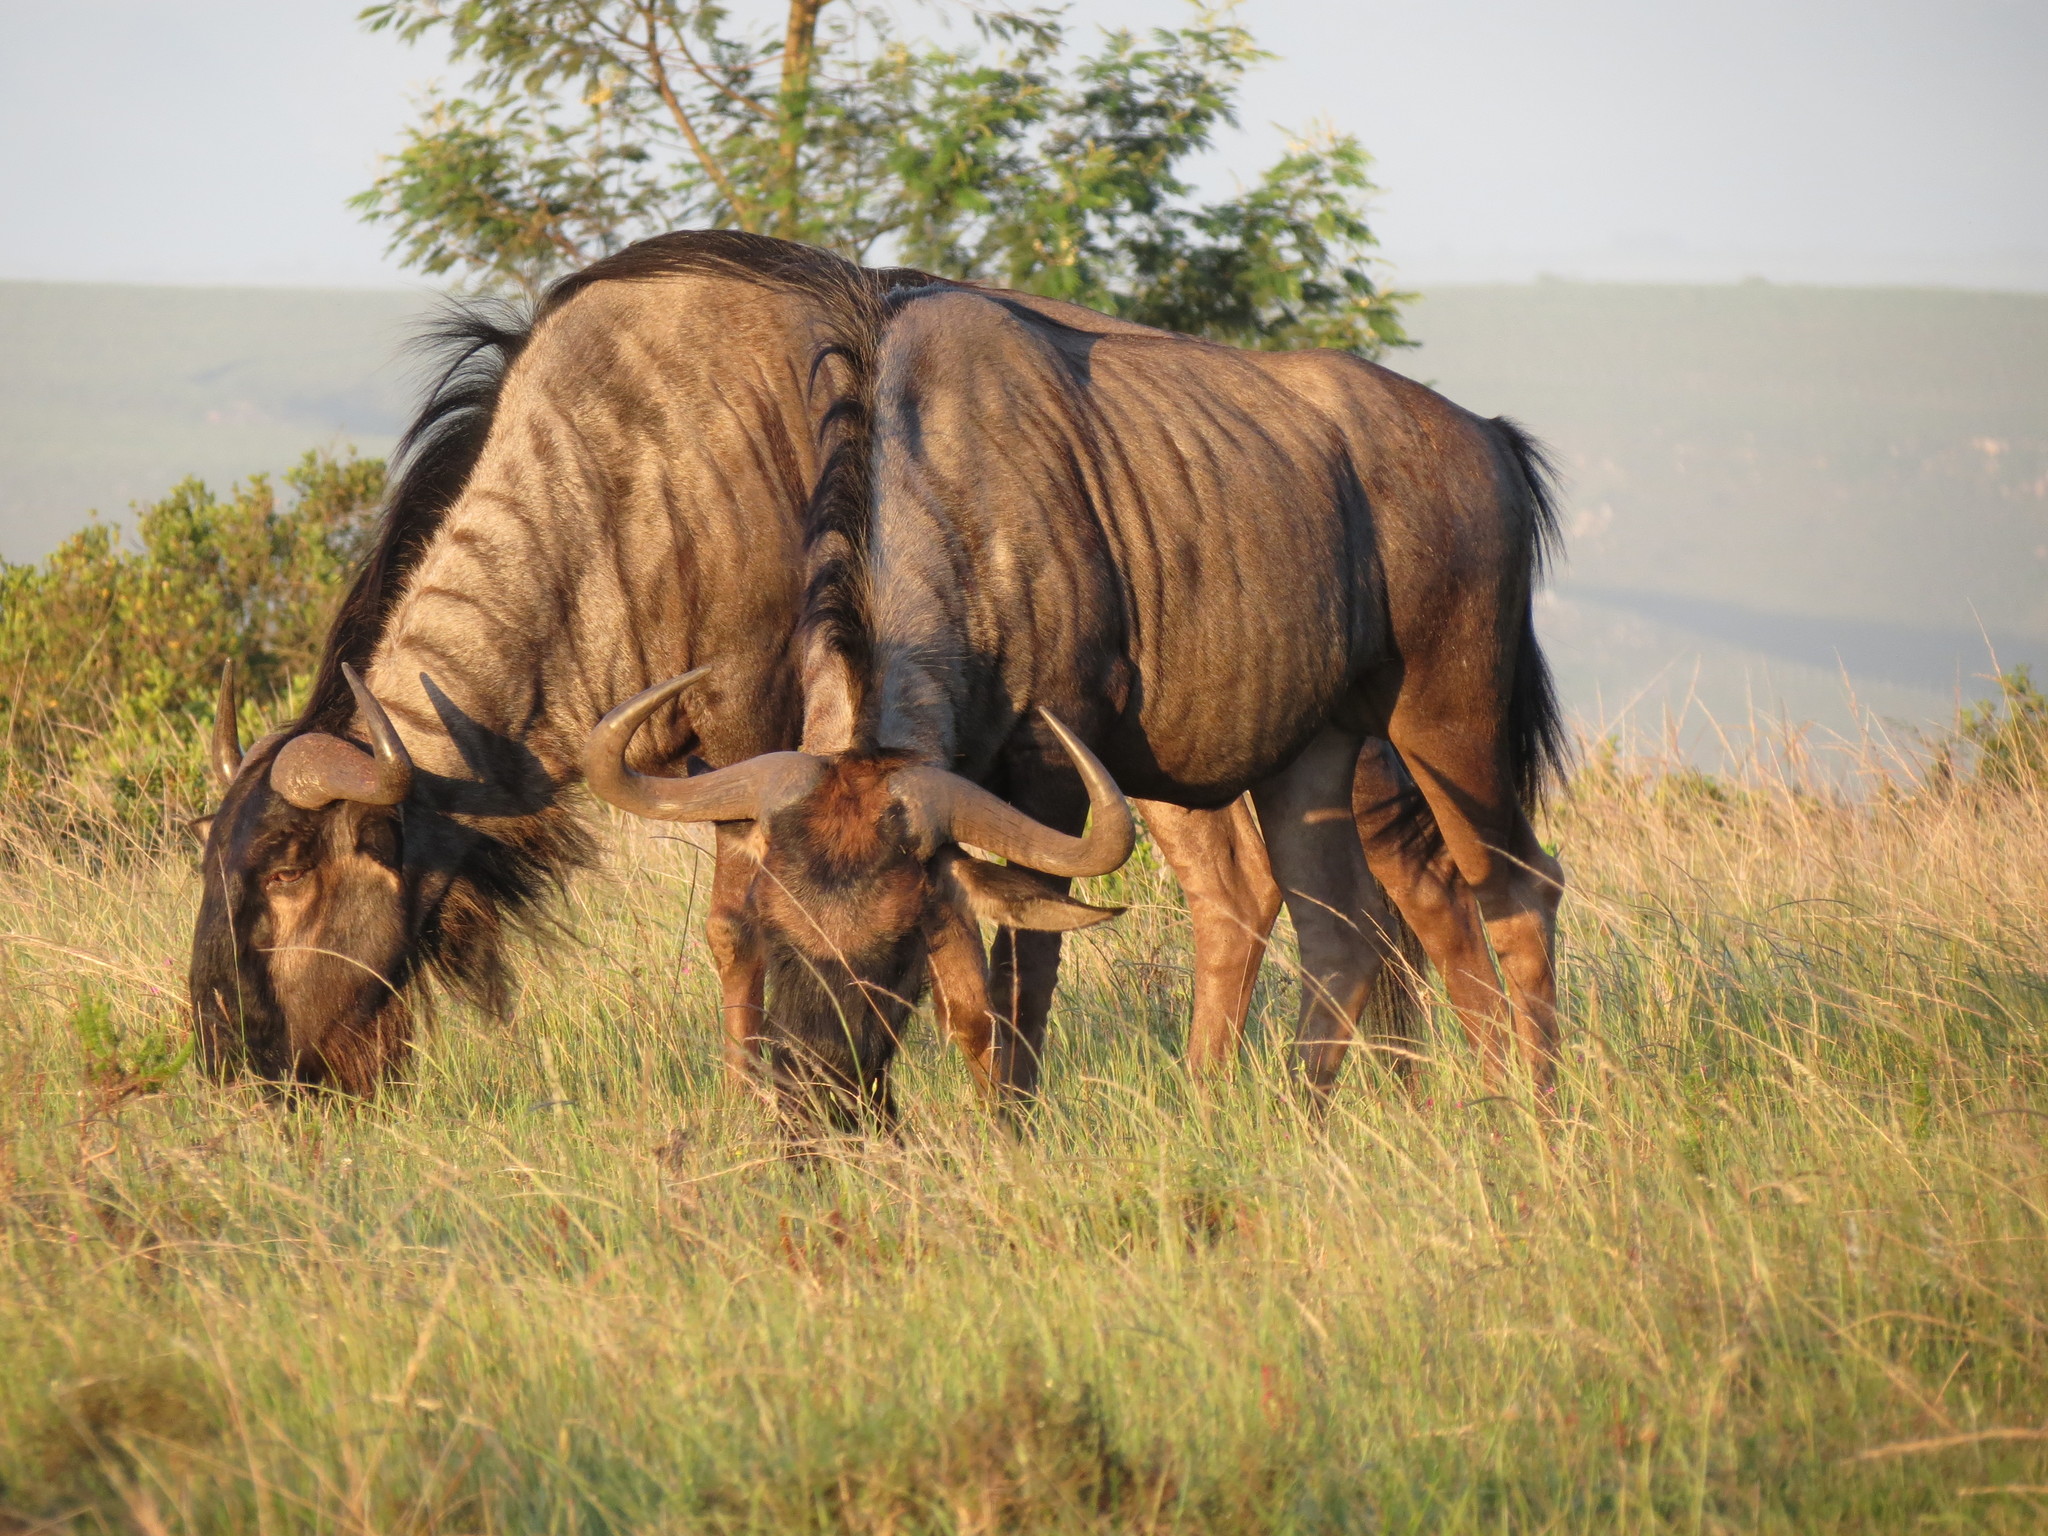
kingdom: Animalia
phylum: Chordata
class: Mammalia
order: Artiodactyla
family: Bovidae
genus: Connochaetes
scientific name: Connochaetes taurinus
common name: Blue wildebeest
